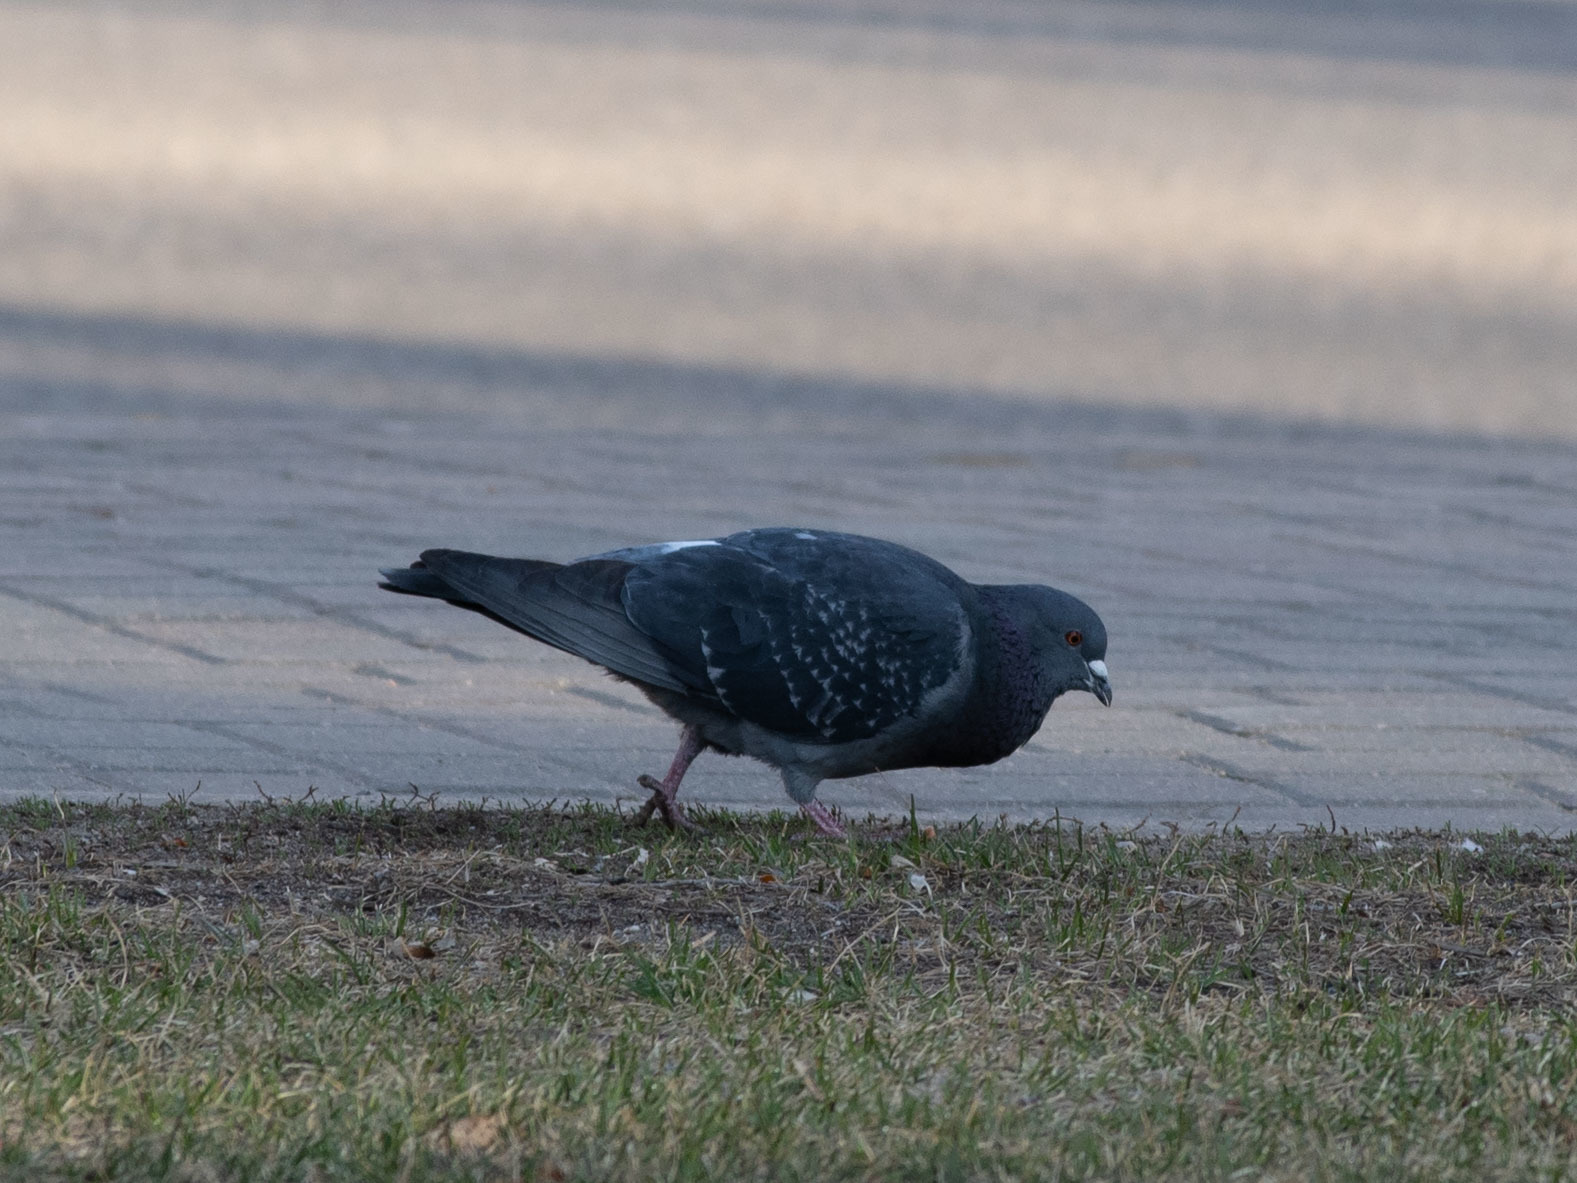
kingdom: Animalia
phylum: Chordata
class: Aves
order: Columbiformes
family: Columbidae
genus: Columba
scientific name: Columba livia
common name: Rock pigeon
